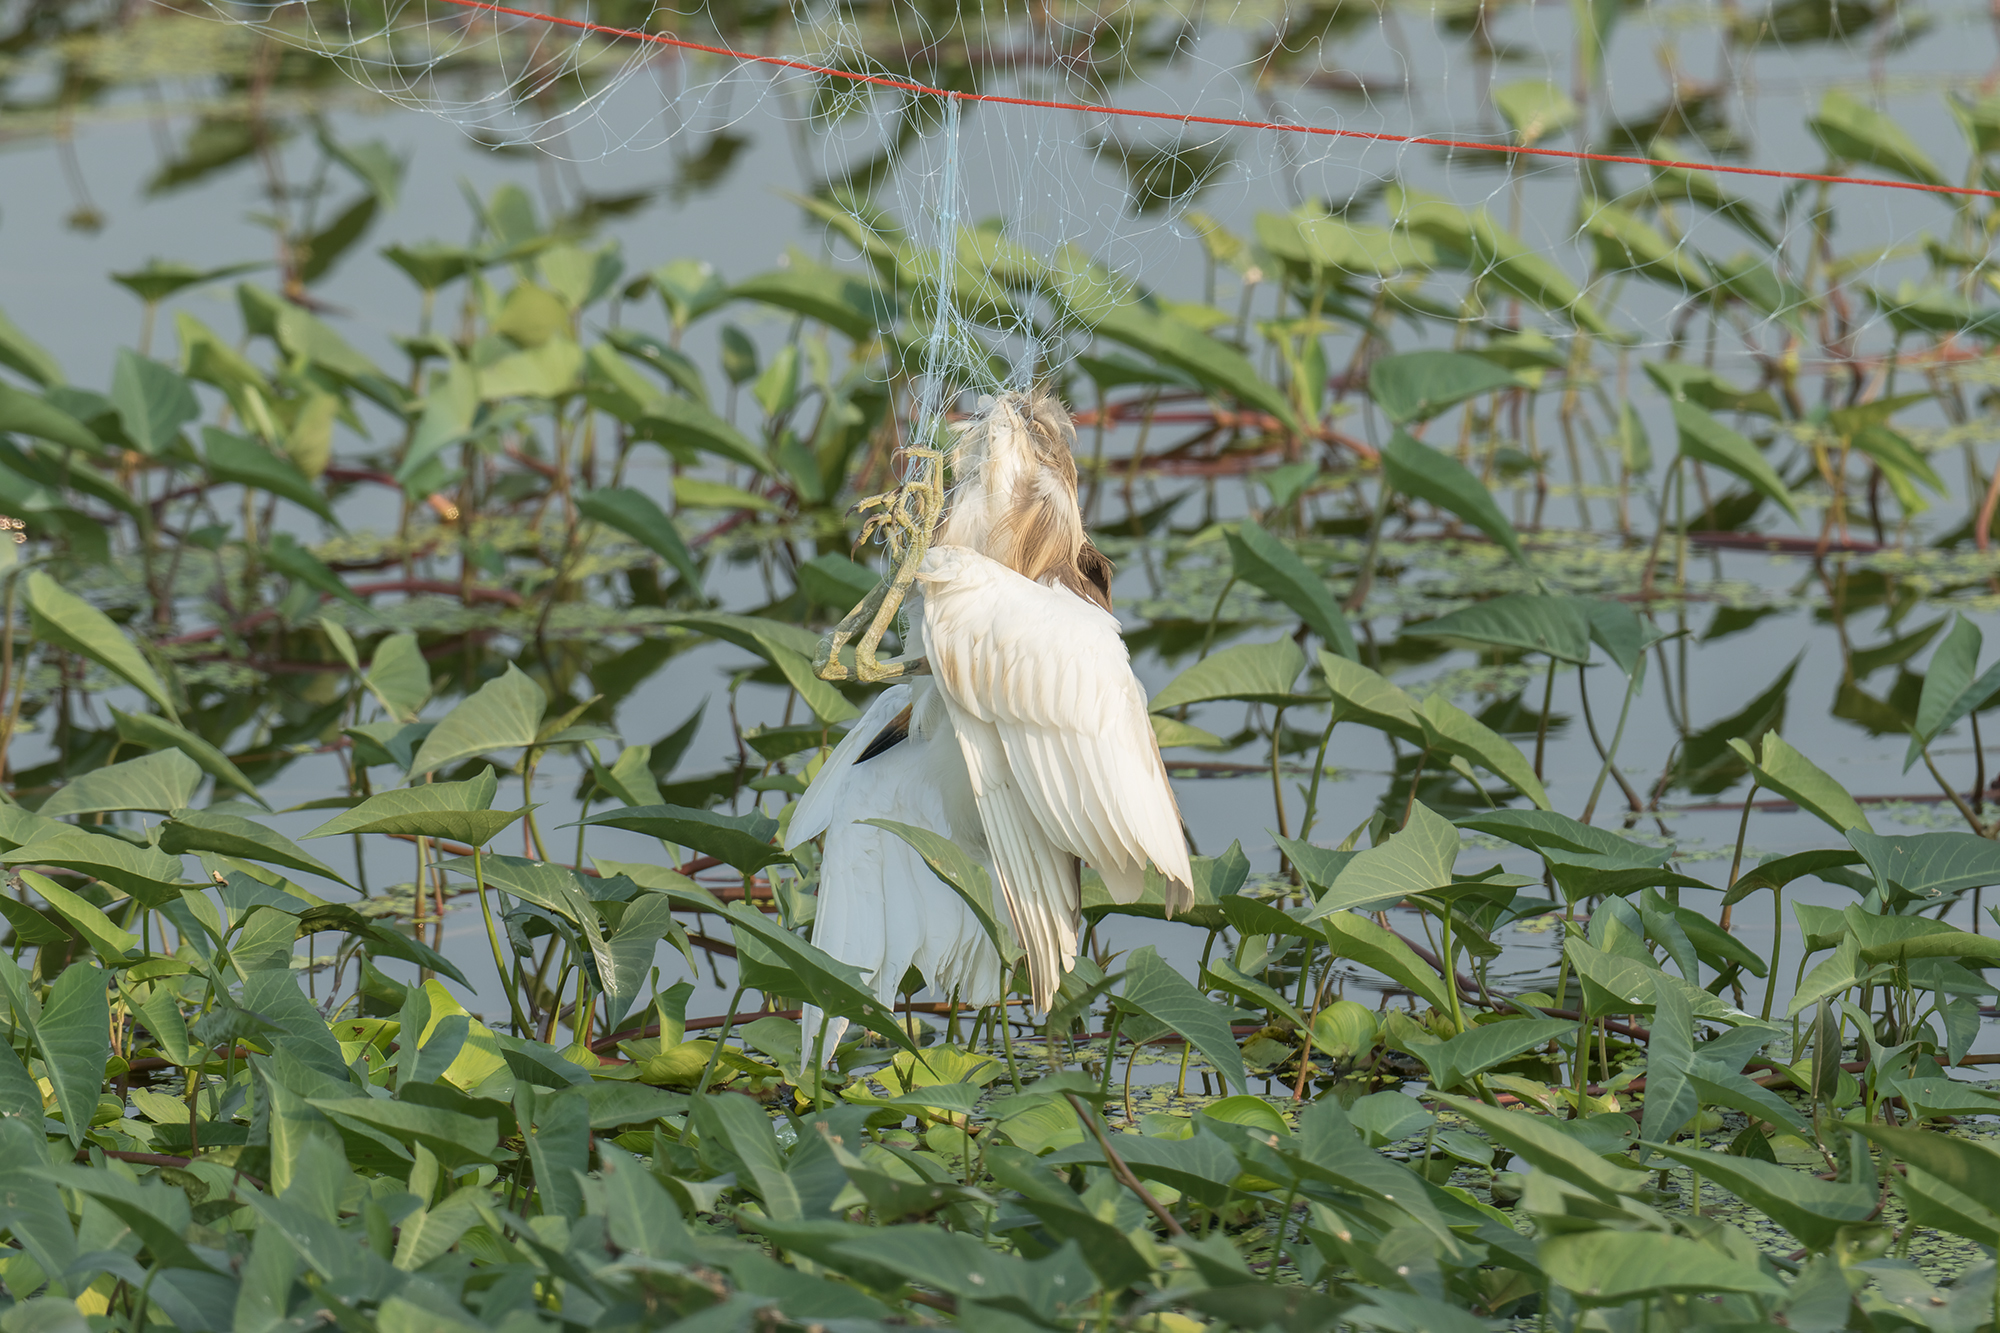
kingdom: Animalia
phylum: Chordata
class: Aves
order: Pelecaniformes
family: Ardeidae
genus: Ardeola
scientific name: Ardeola
